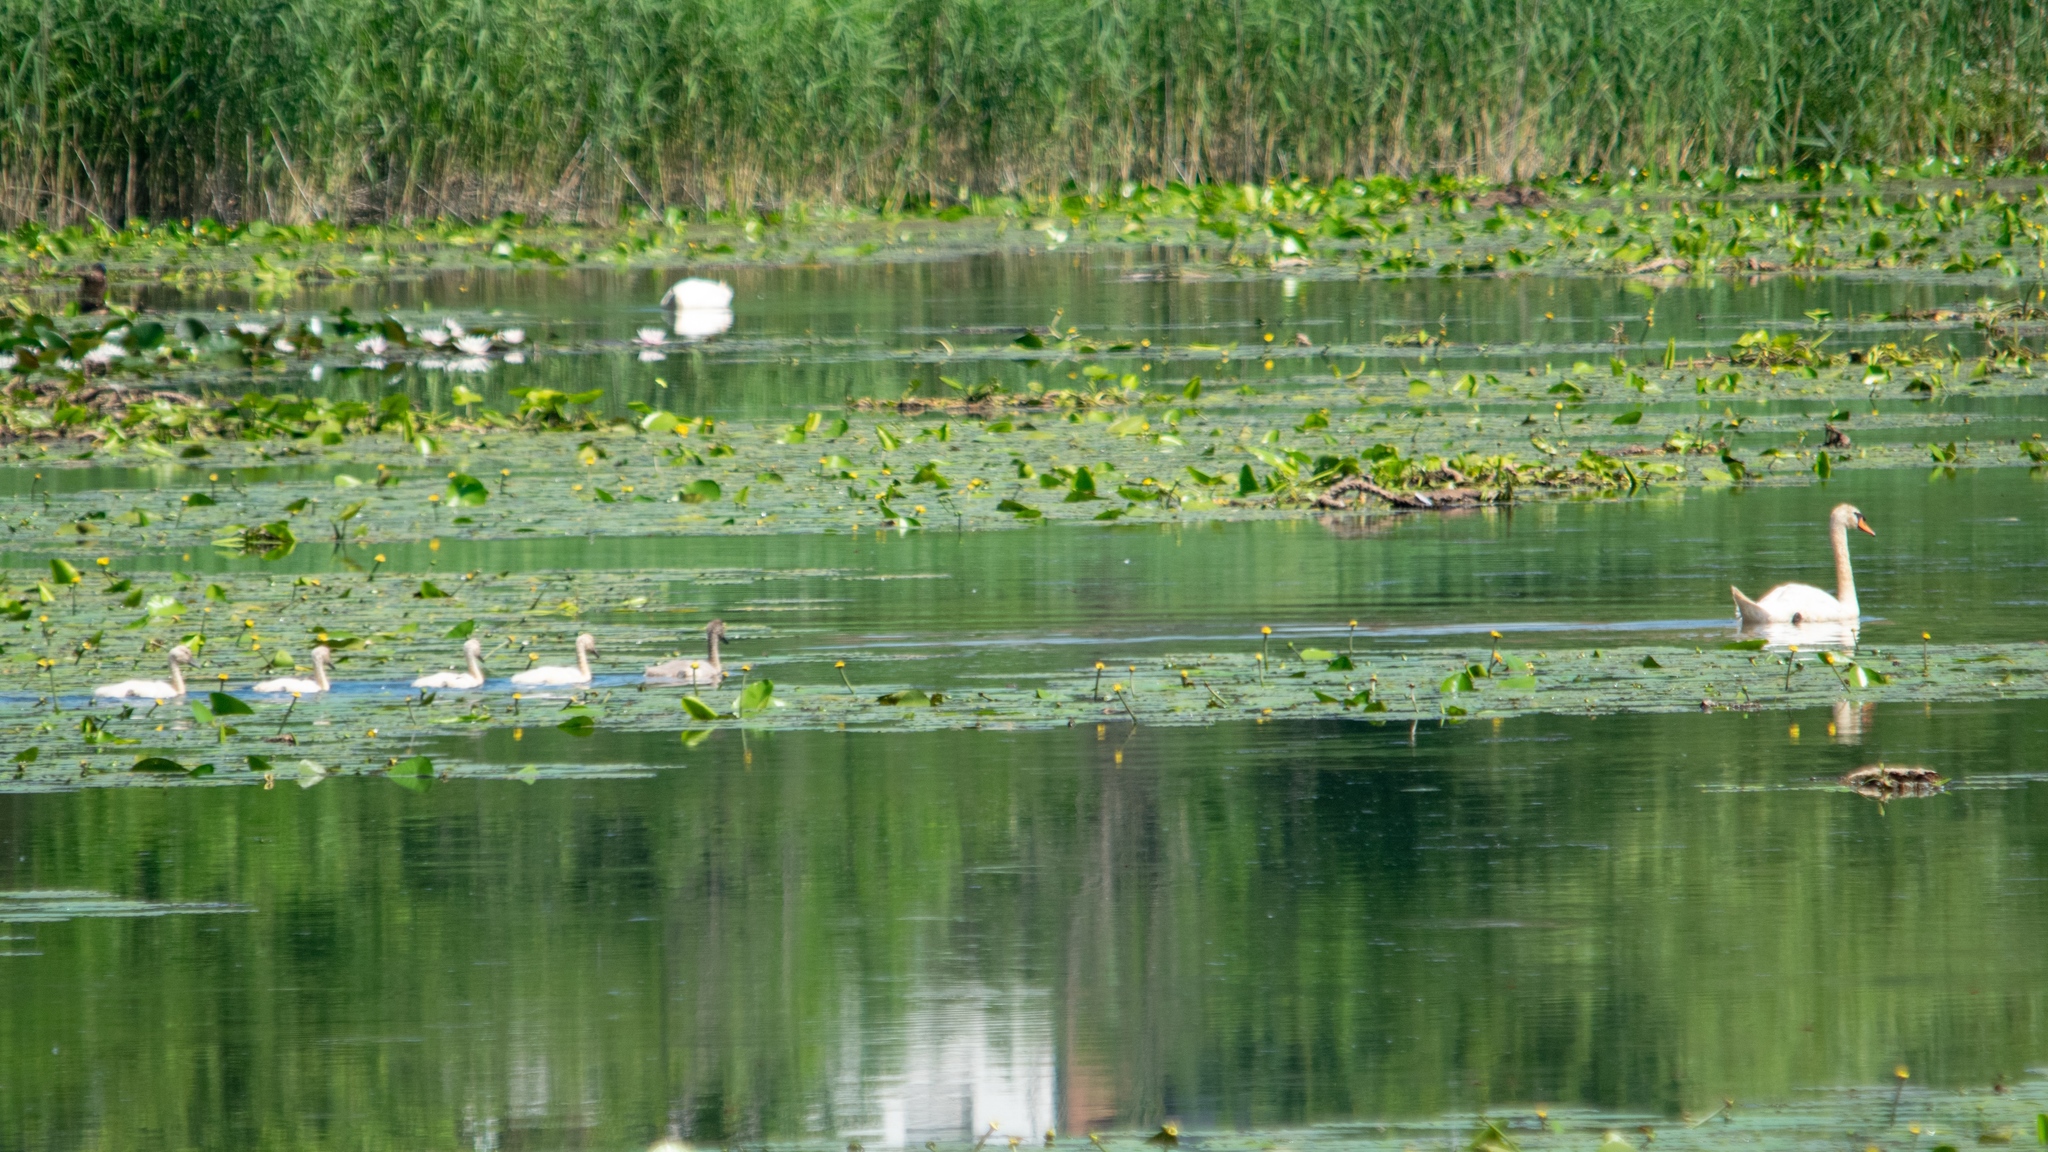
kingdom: Animalia
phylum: Chordata
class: Aves
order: Anseriformes
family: Anatidae
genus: Cygnus
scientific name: Cygnus olor
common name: Mute swan
